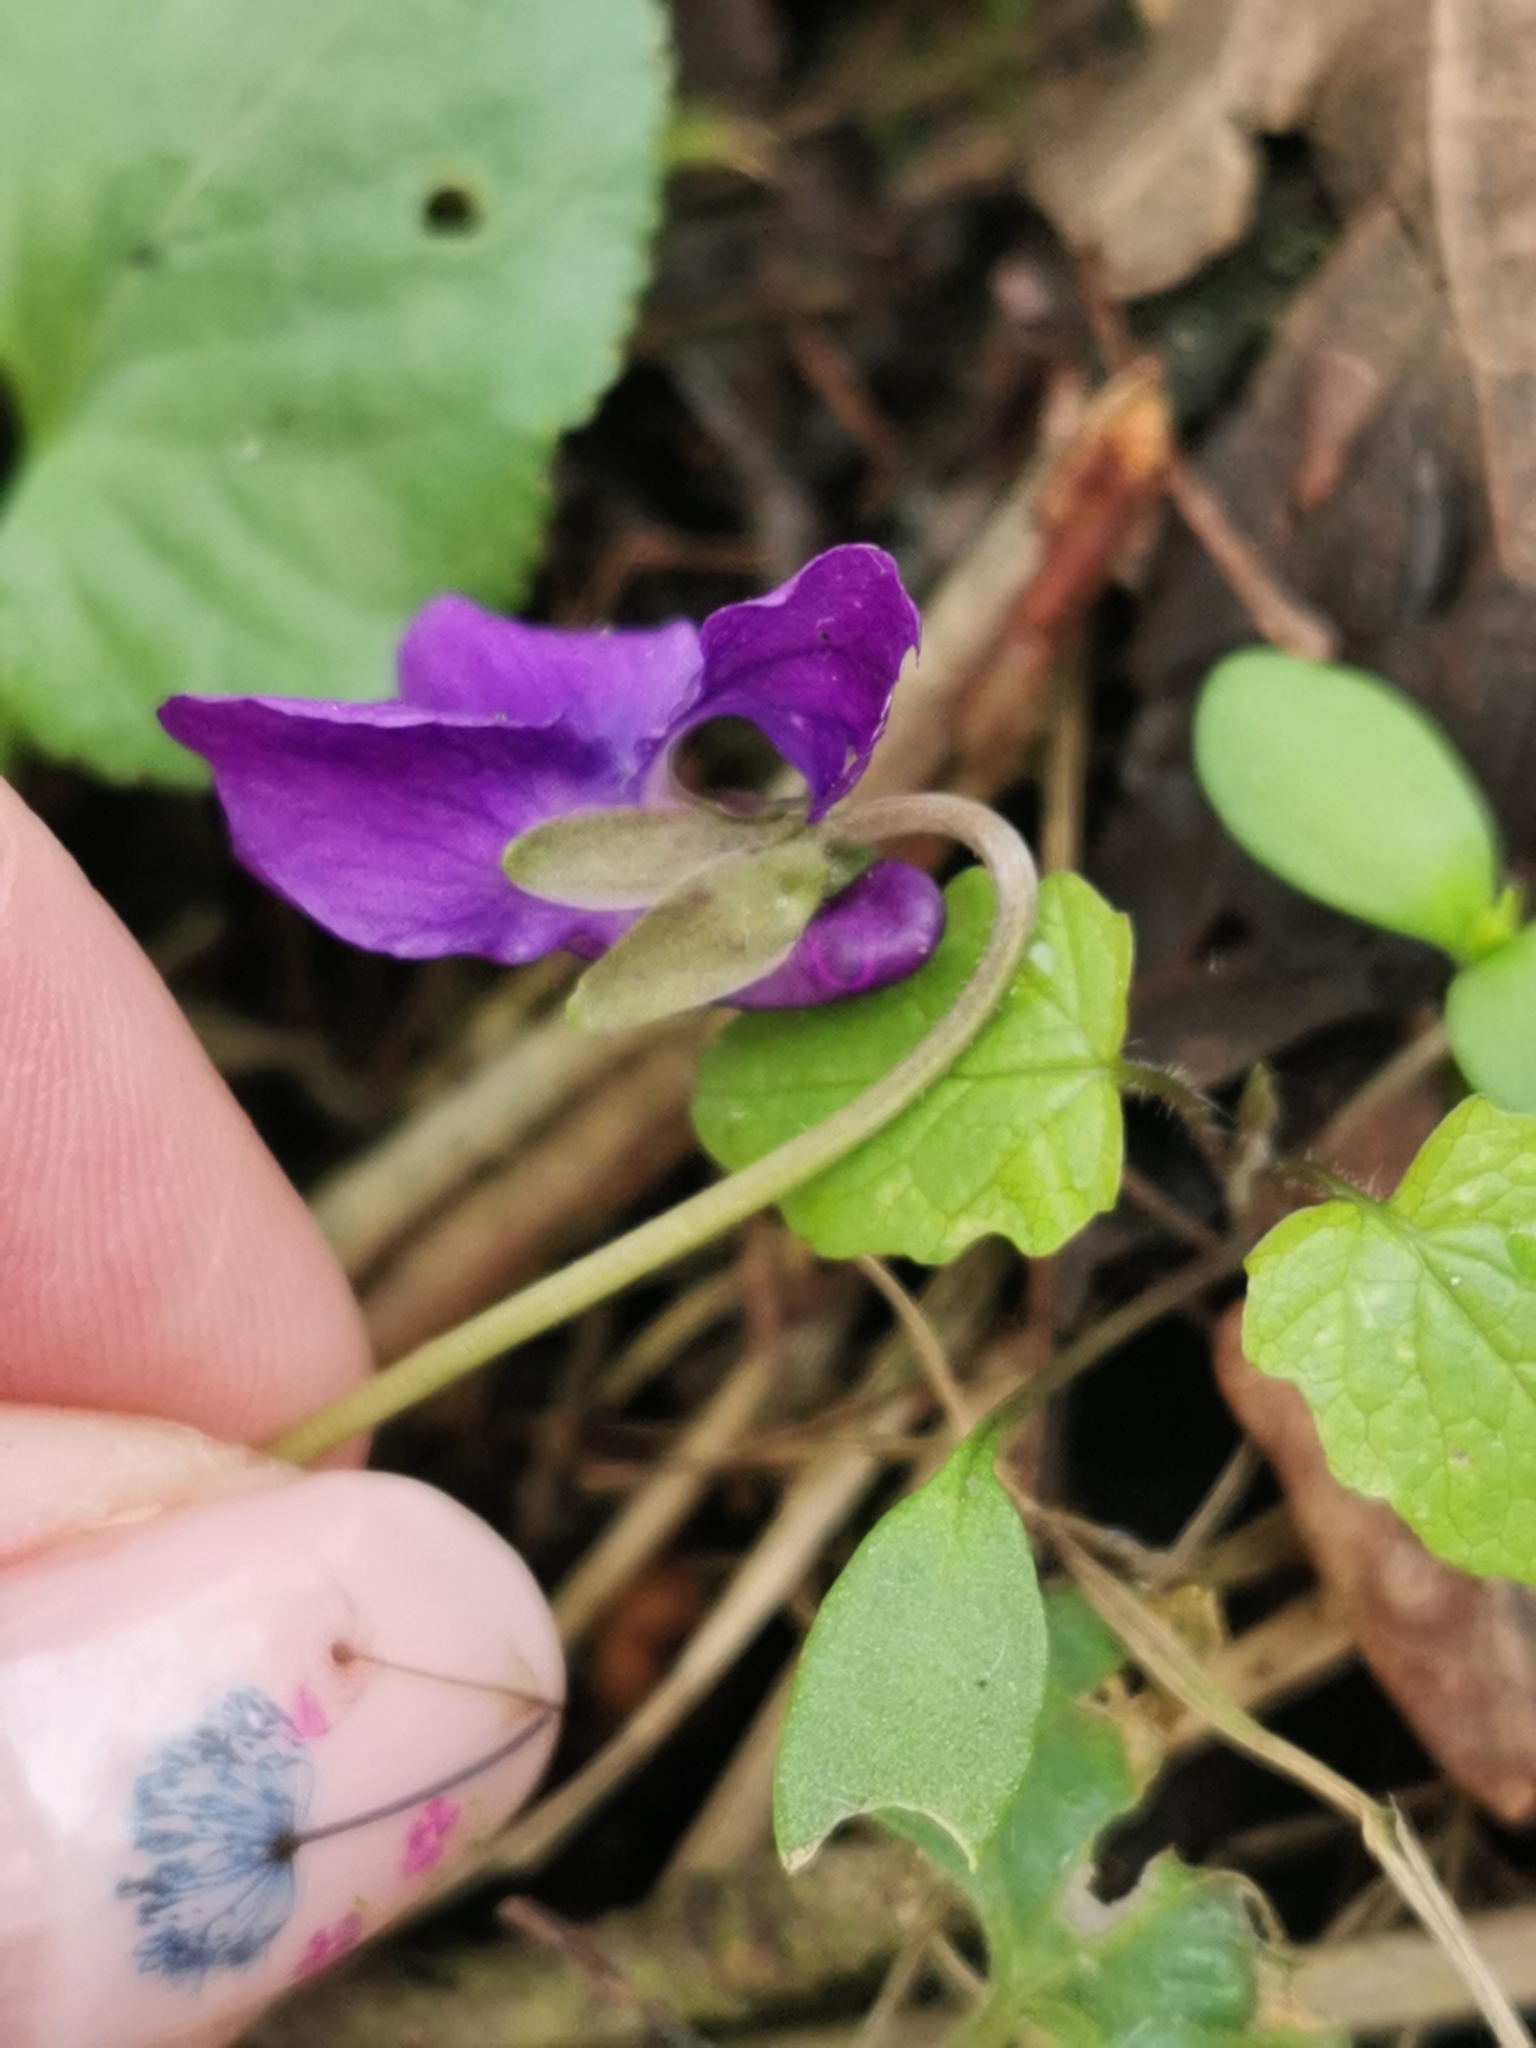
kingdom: Plantae
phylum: Tracheophyta
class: Magnoliopsida
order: Malpighiales
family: Violaceae
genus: Viola
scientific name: Viola odorata
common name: Sweet violet
